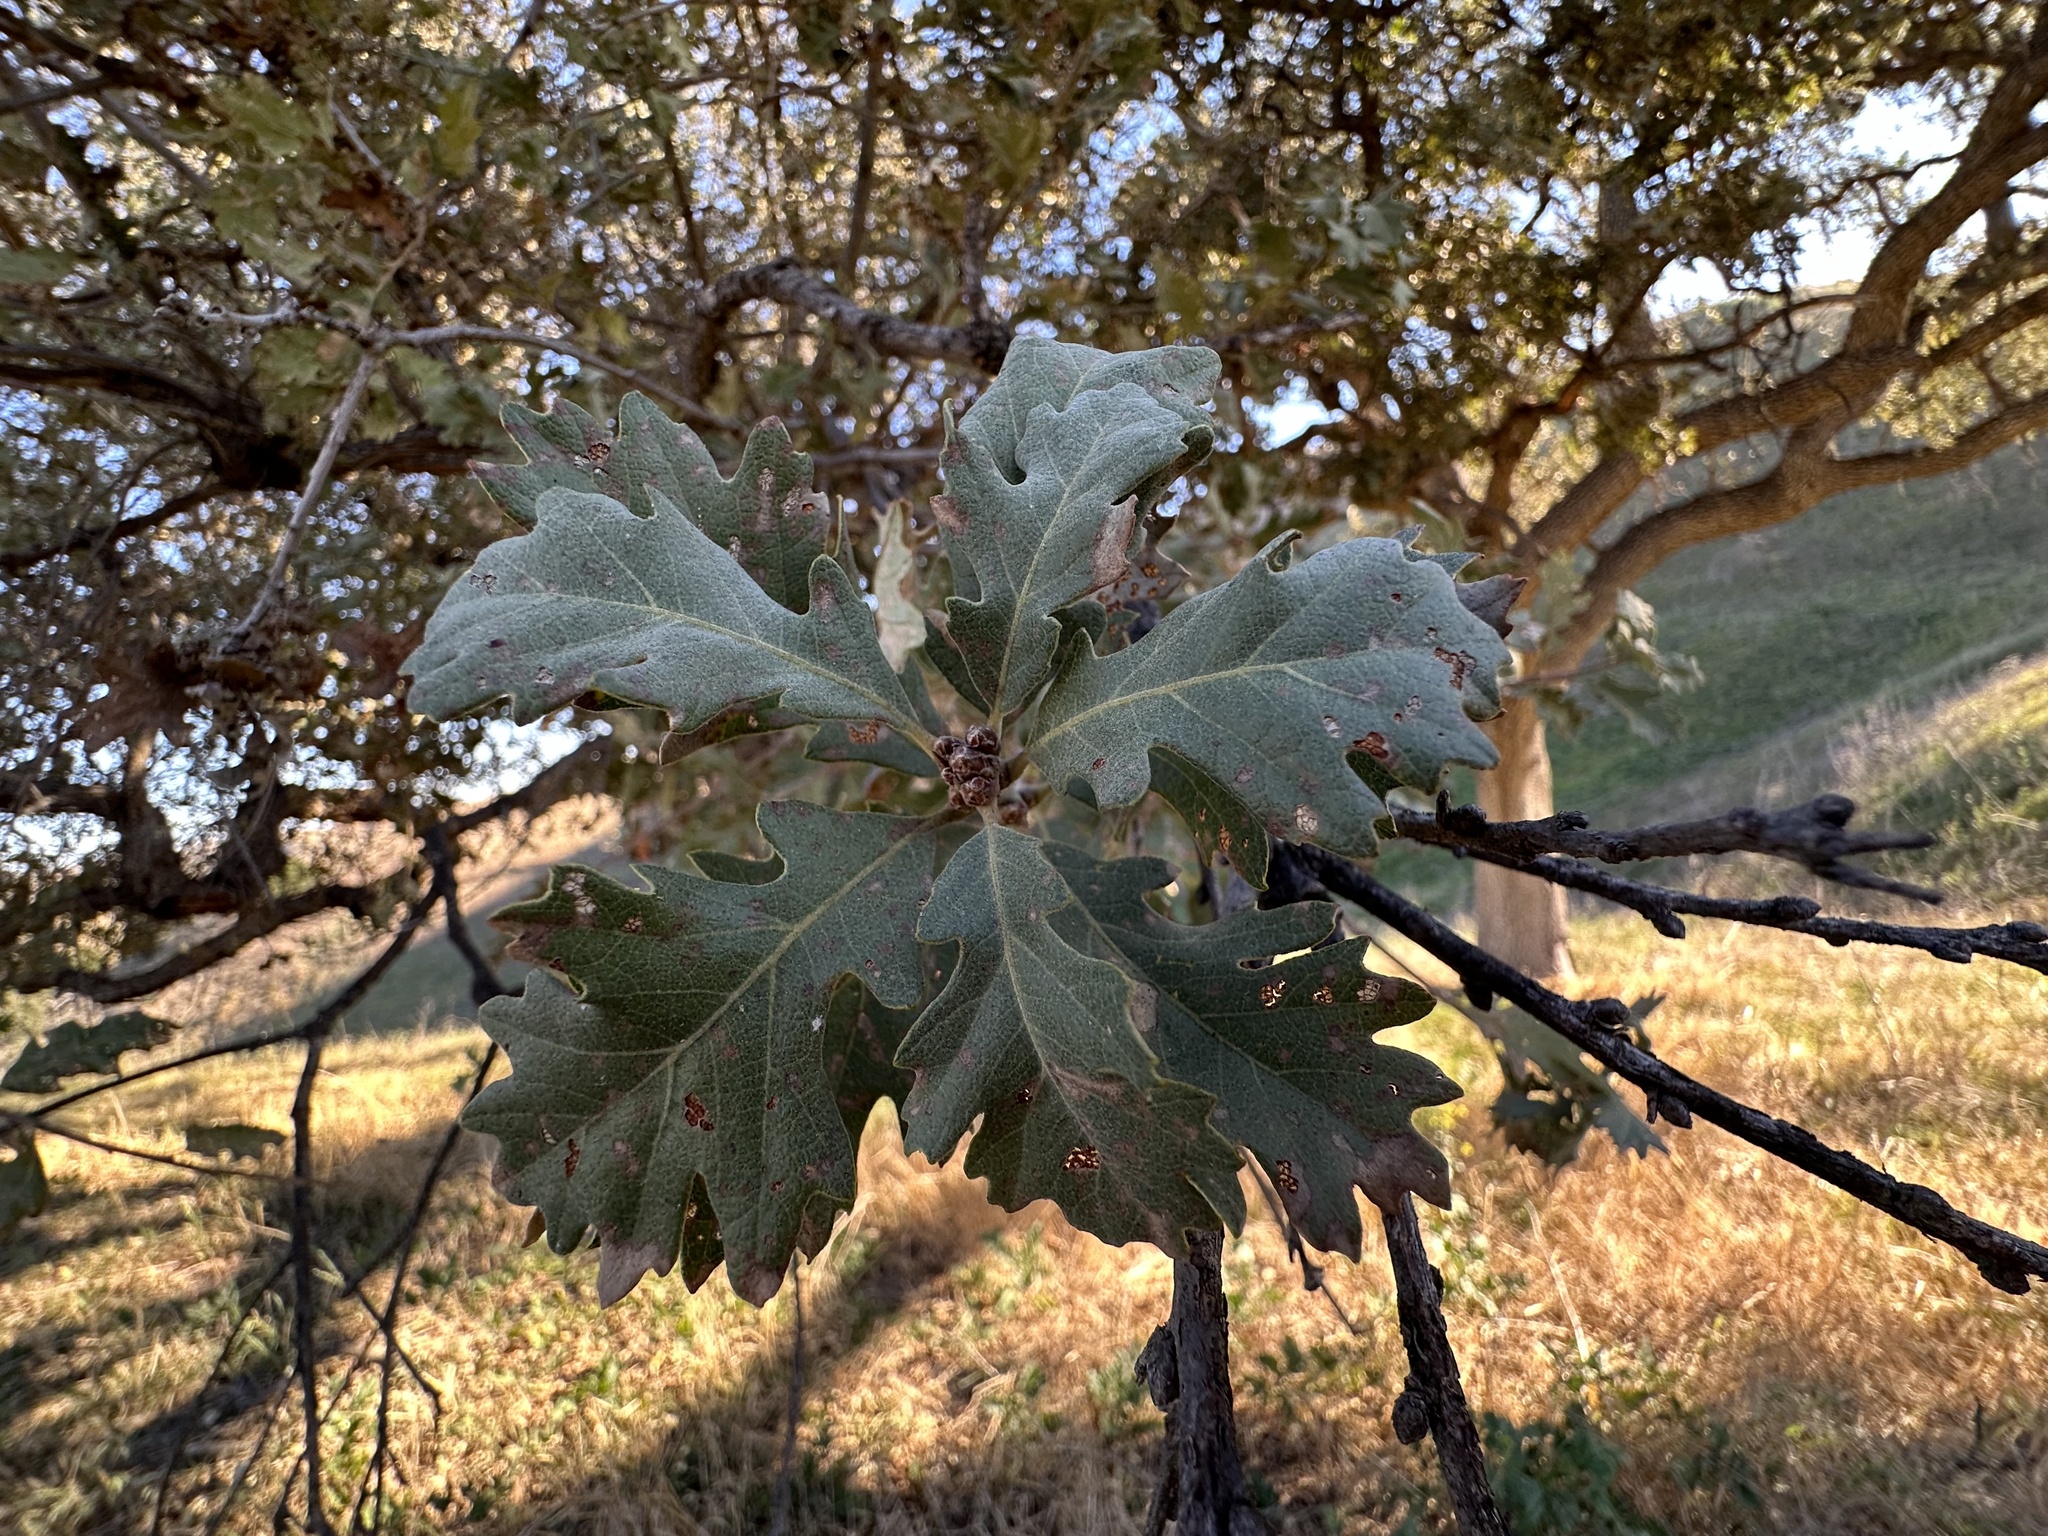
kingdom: Plantae
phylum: Tracheophyta
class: Magnoliopsida
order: Fagales
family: Fagaceae
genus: Quercus
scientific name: Quercus lobata
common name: Valley oak
